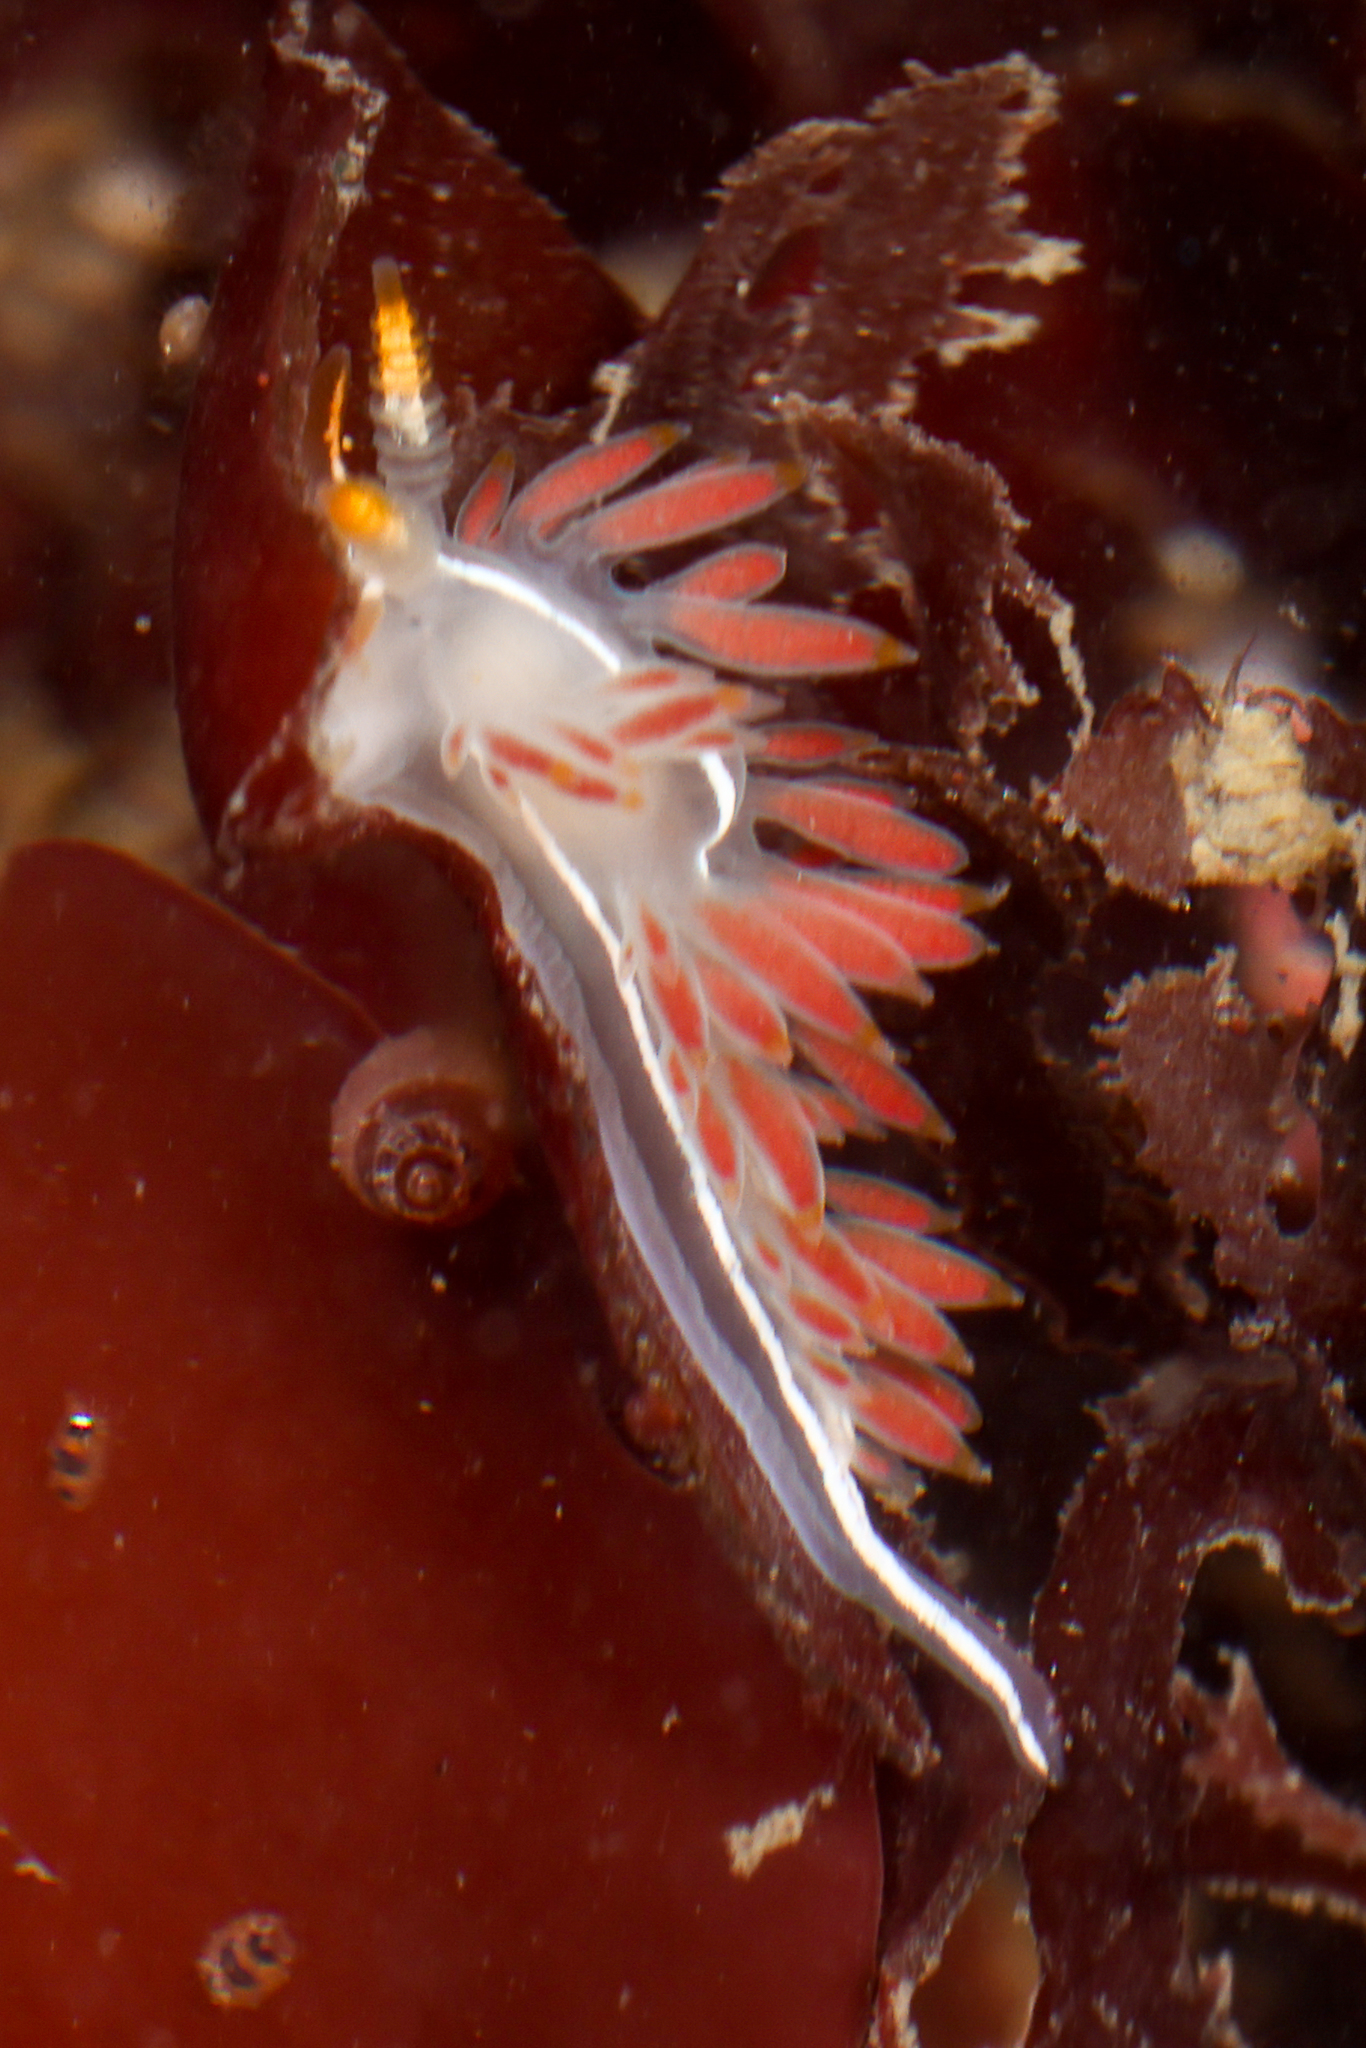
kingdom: Animalia
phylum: Mollusca
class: Gastropoda
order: Nudibranchia
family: Coryphellidae
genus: Coryphella
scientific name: Coryphella trilineata
